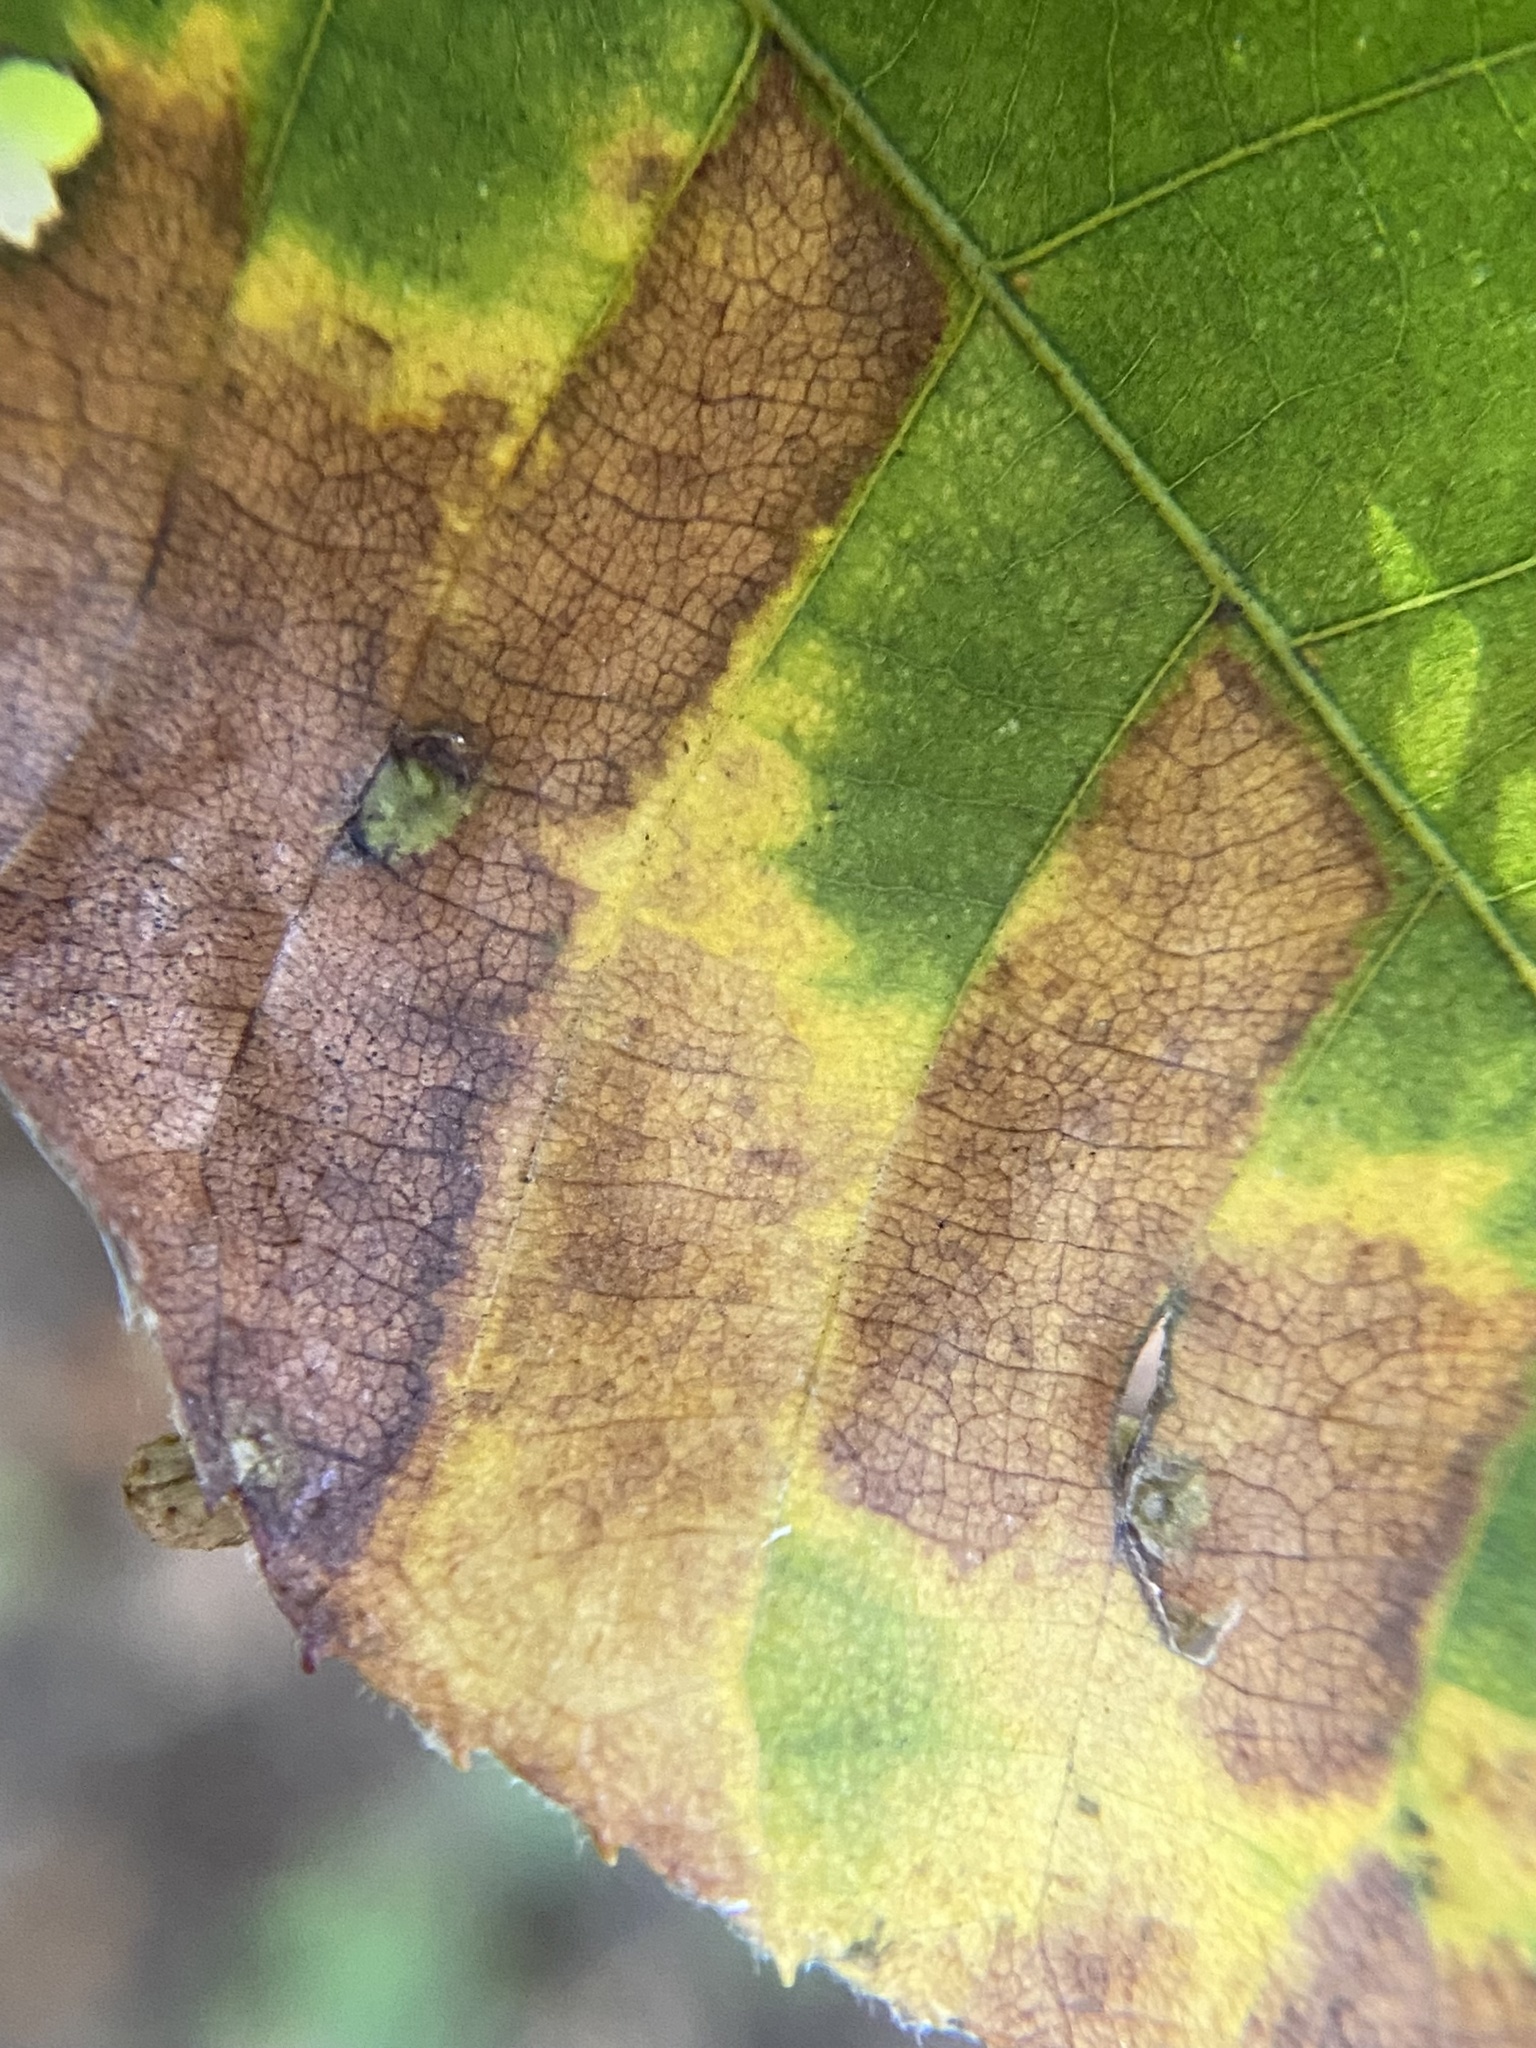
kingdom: Animalia
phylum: Arthropoda
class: Insecta
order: Diptera
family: Cecidomyiidae
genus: Caryomyia
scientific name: Caryomyia caryae
